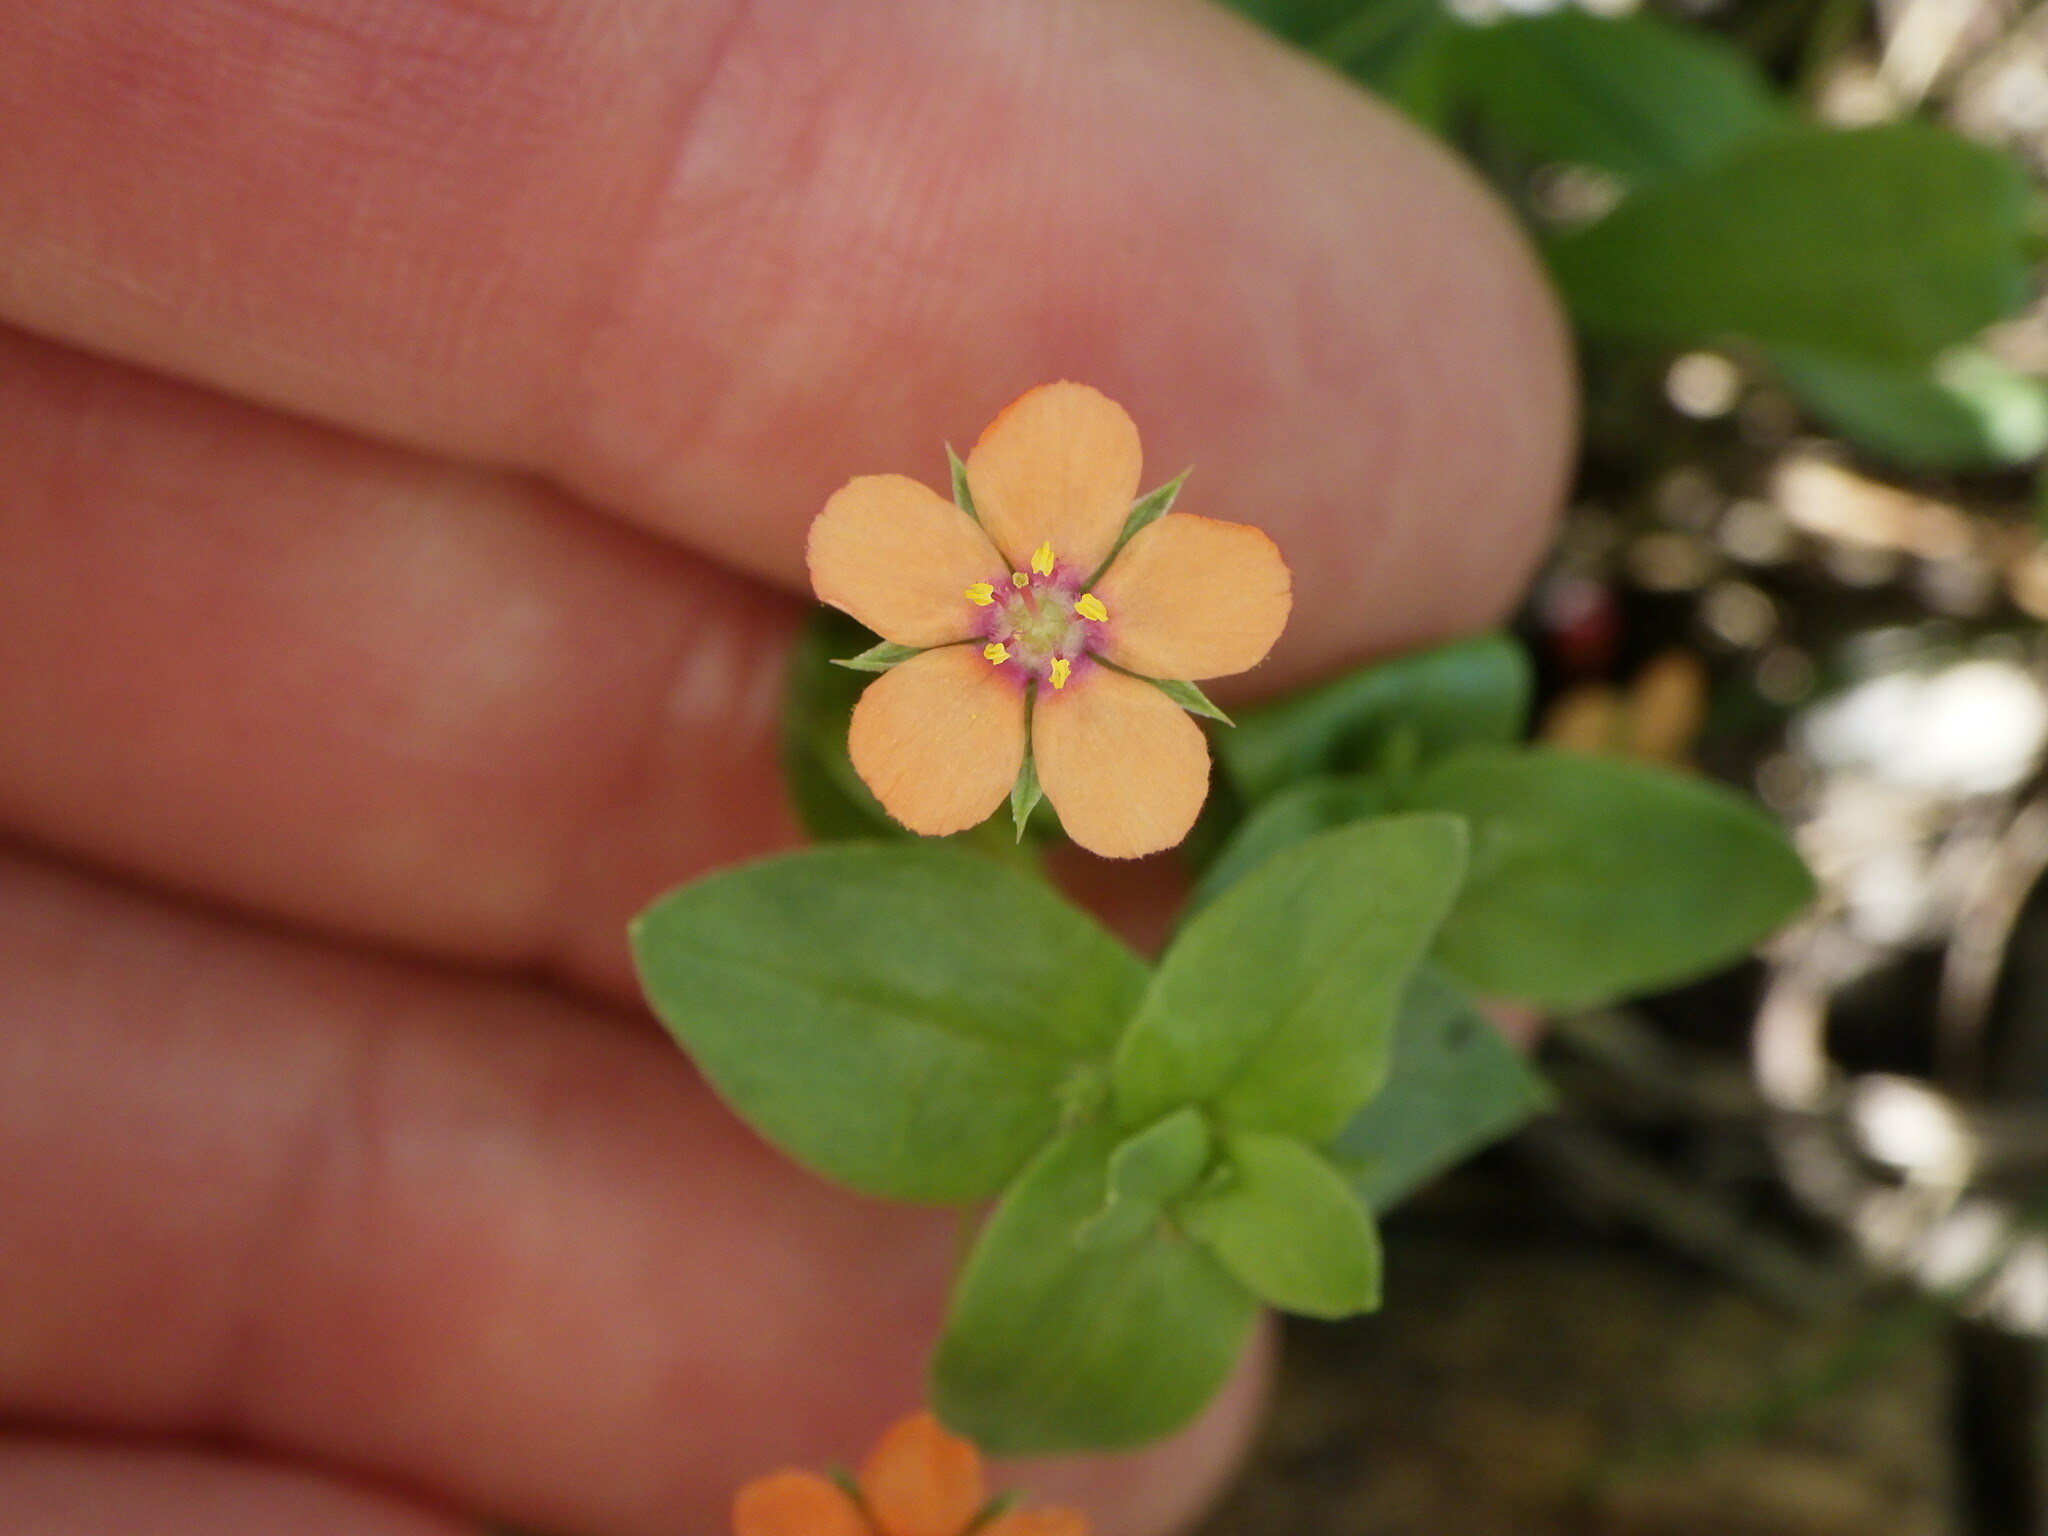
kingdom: Plantae
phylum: Tracheophyta
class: Magnoliopsida
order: Ericales
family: Primulaceae
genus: Lysimachia
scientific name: Lysimachia arvensis
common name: Scarlet pimpernel
